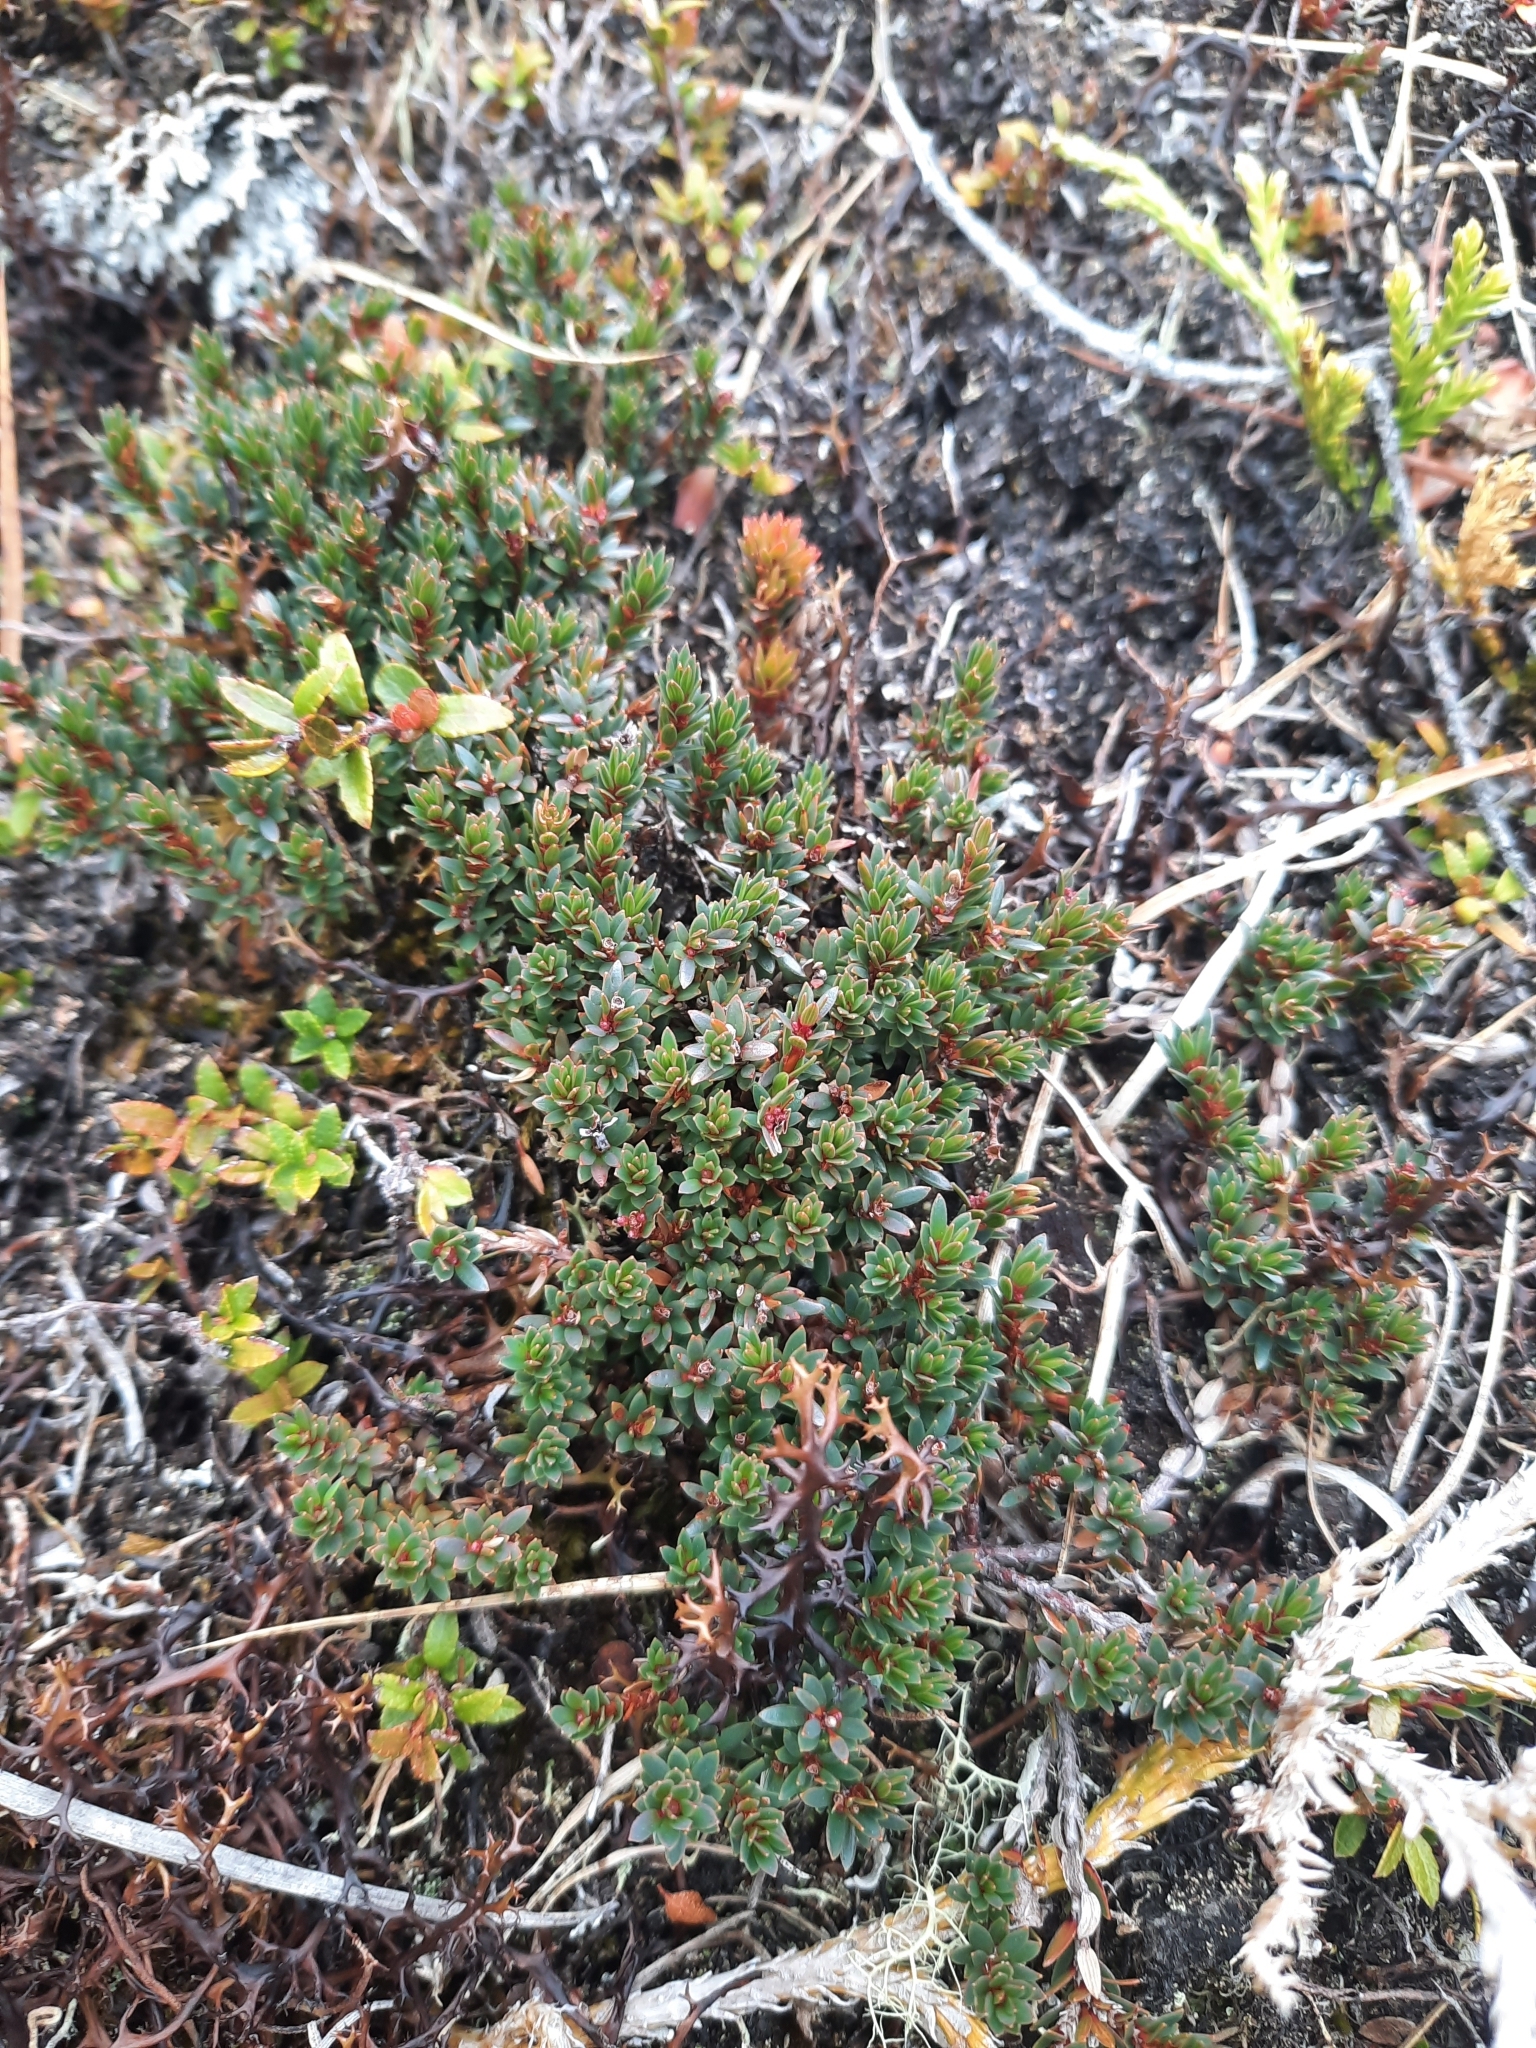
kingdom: Plantae
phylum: Tracheophyta
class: Magnoliopsida
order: Ericales
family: Ericaceae
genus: Pentachondra
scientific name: Pentachondra pumila
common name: Carpet-heath
